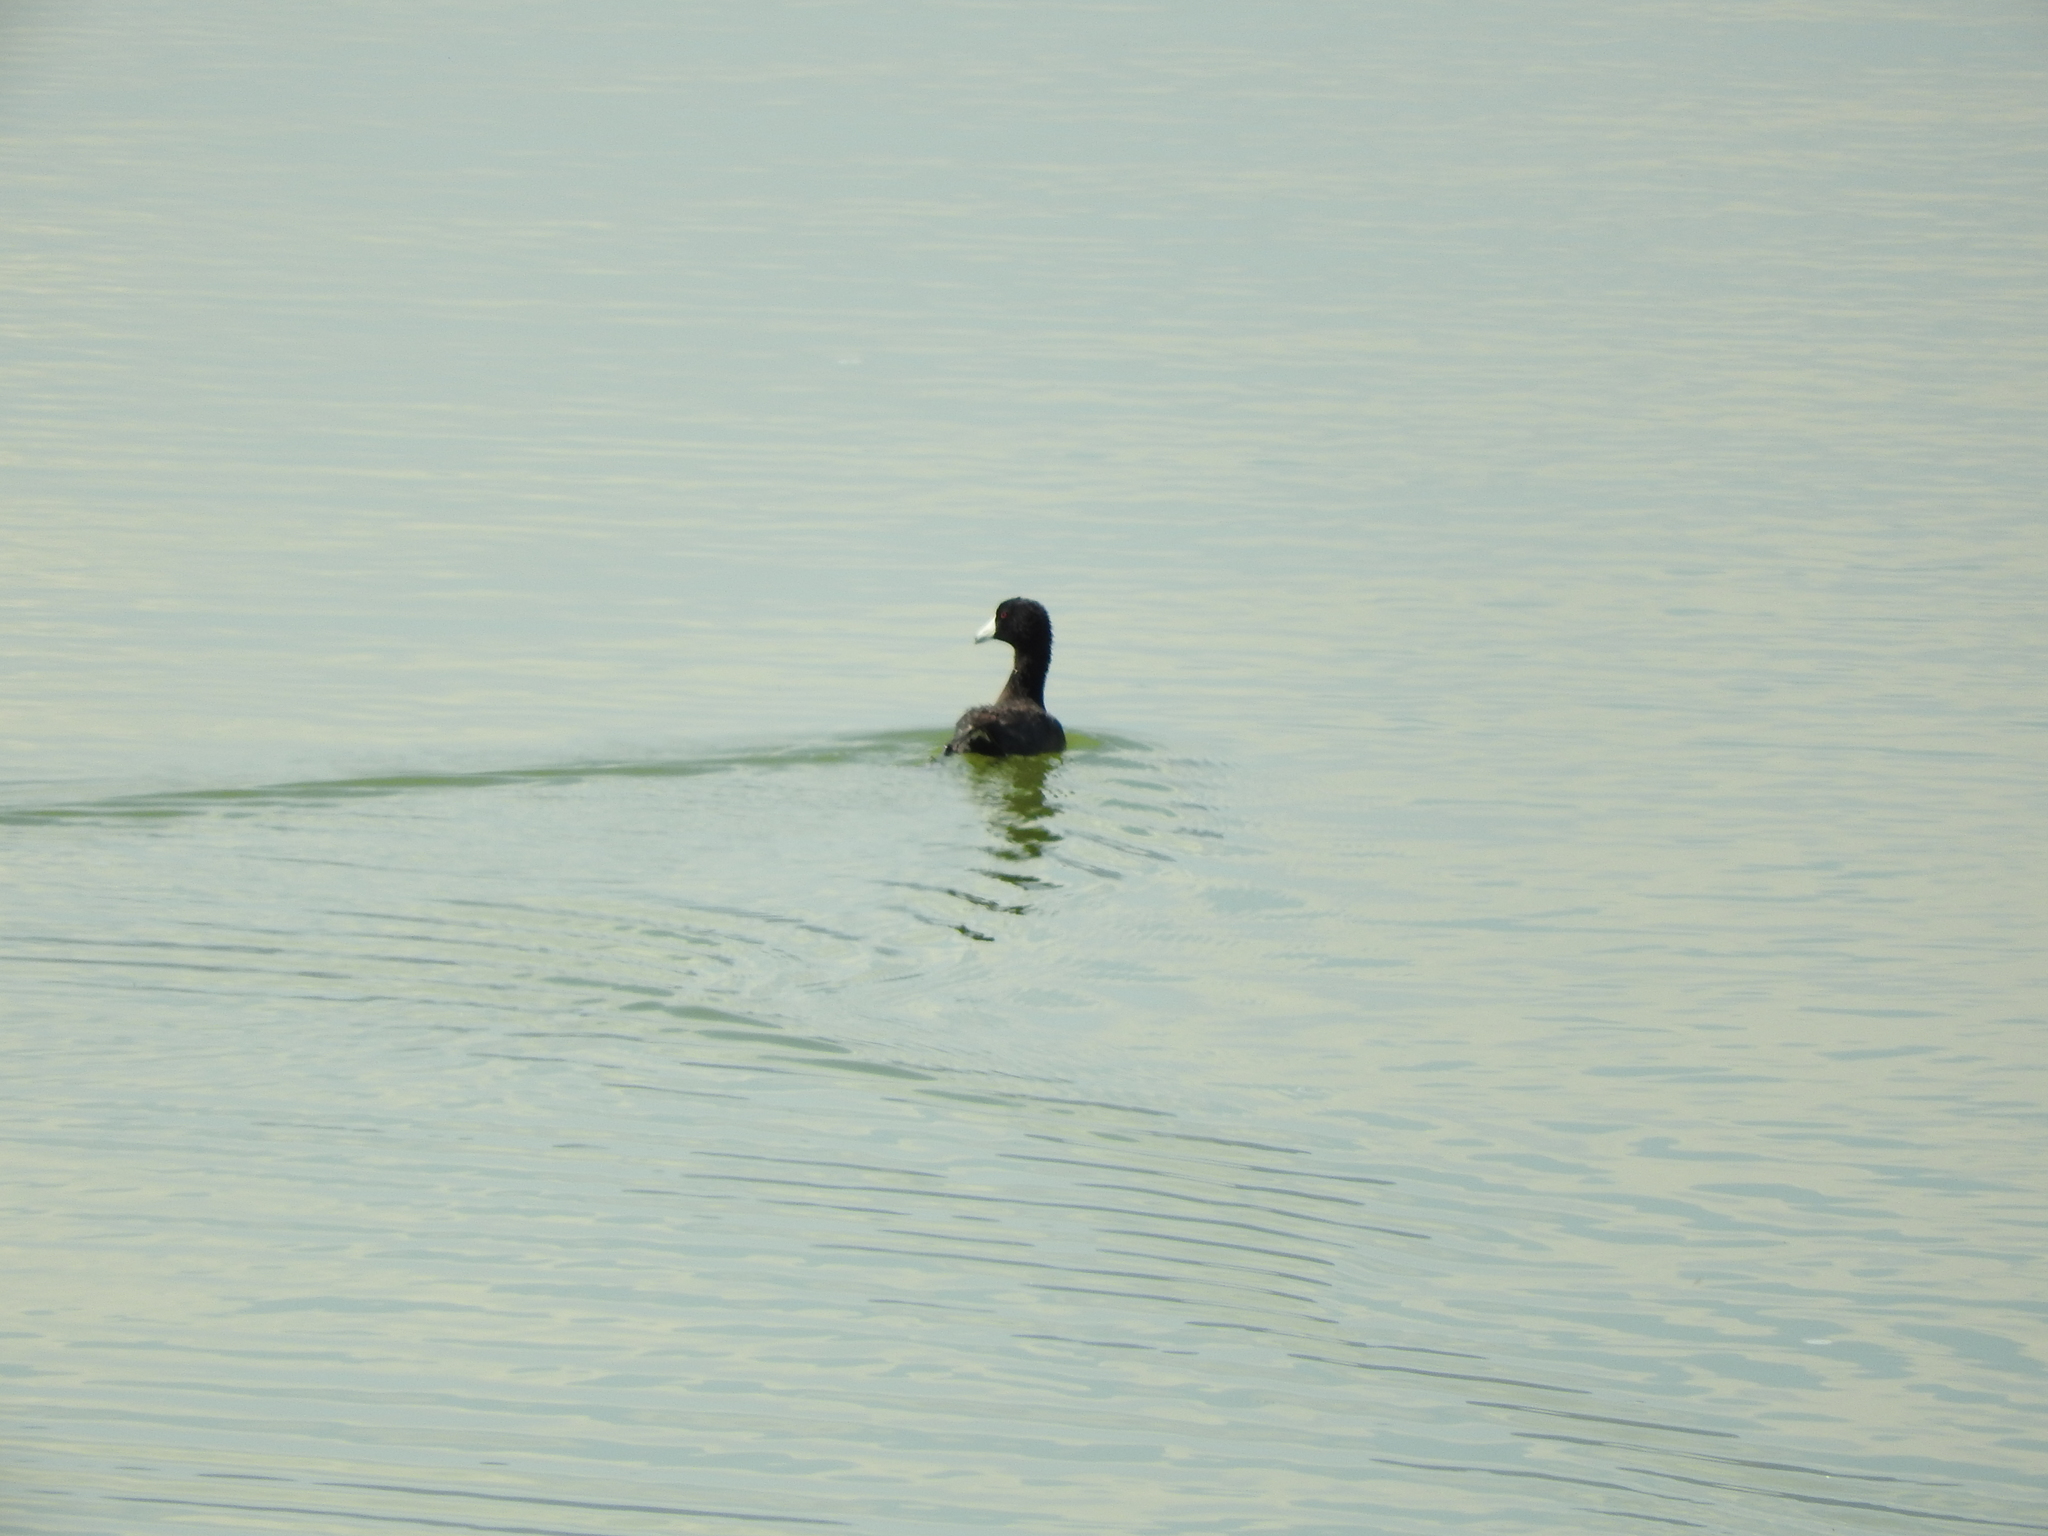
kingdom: Animalia
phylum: Chordata
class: Aves
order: Gruiformes
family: Rallidae
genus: Fulica
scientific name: Fulica americana
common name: American coot
